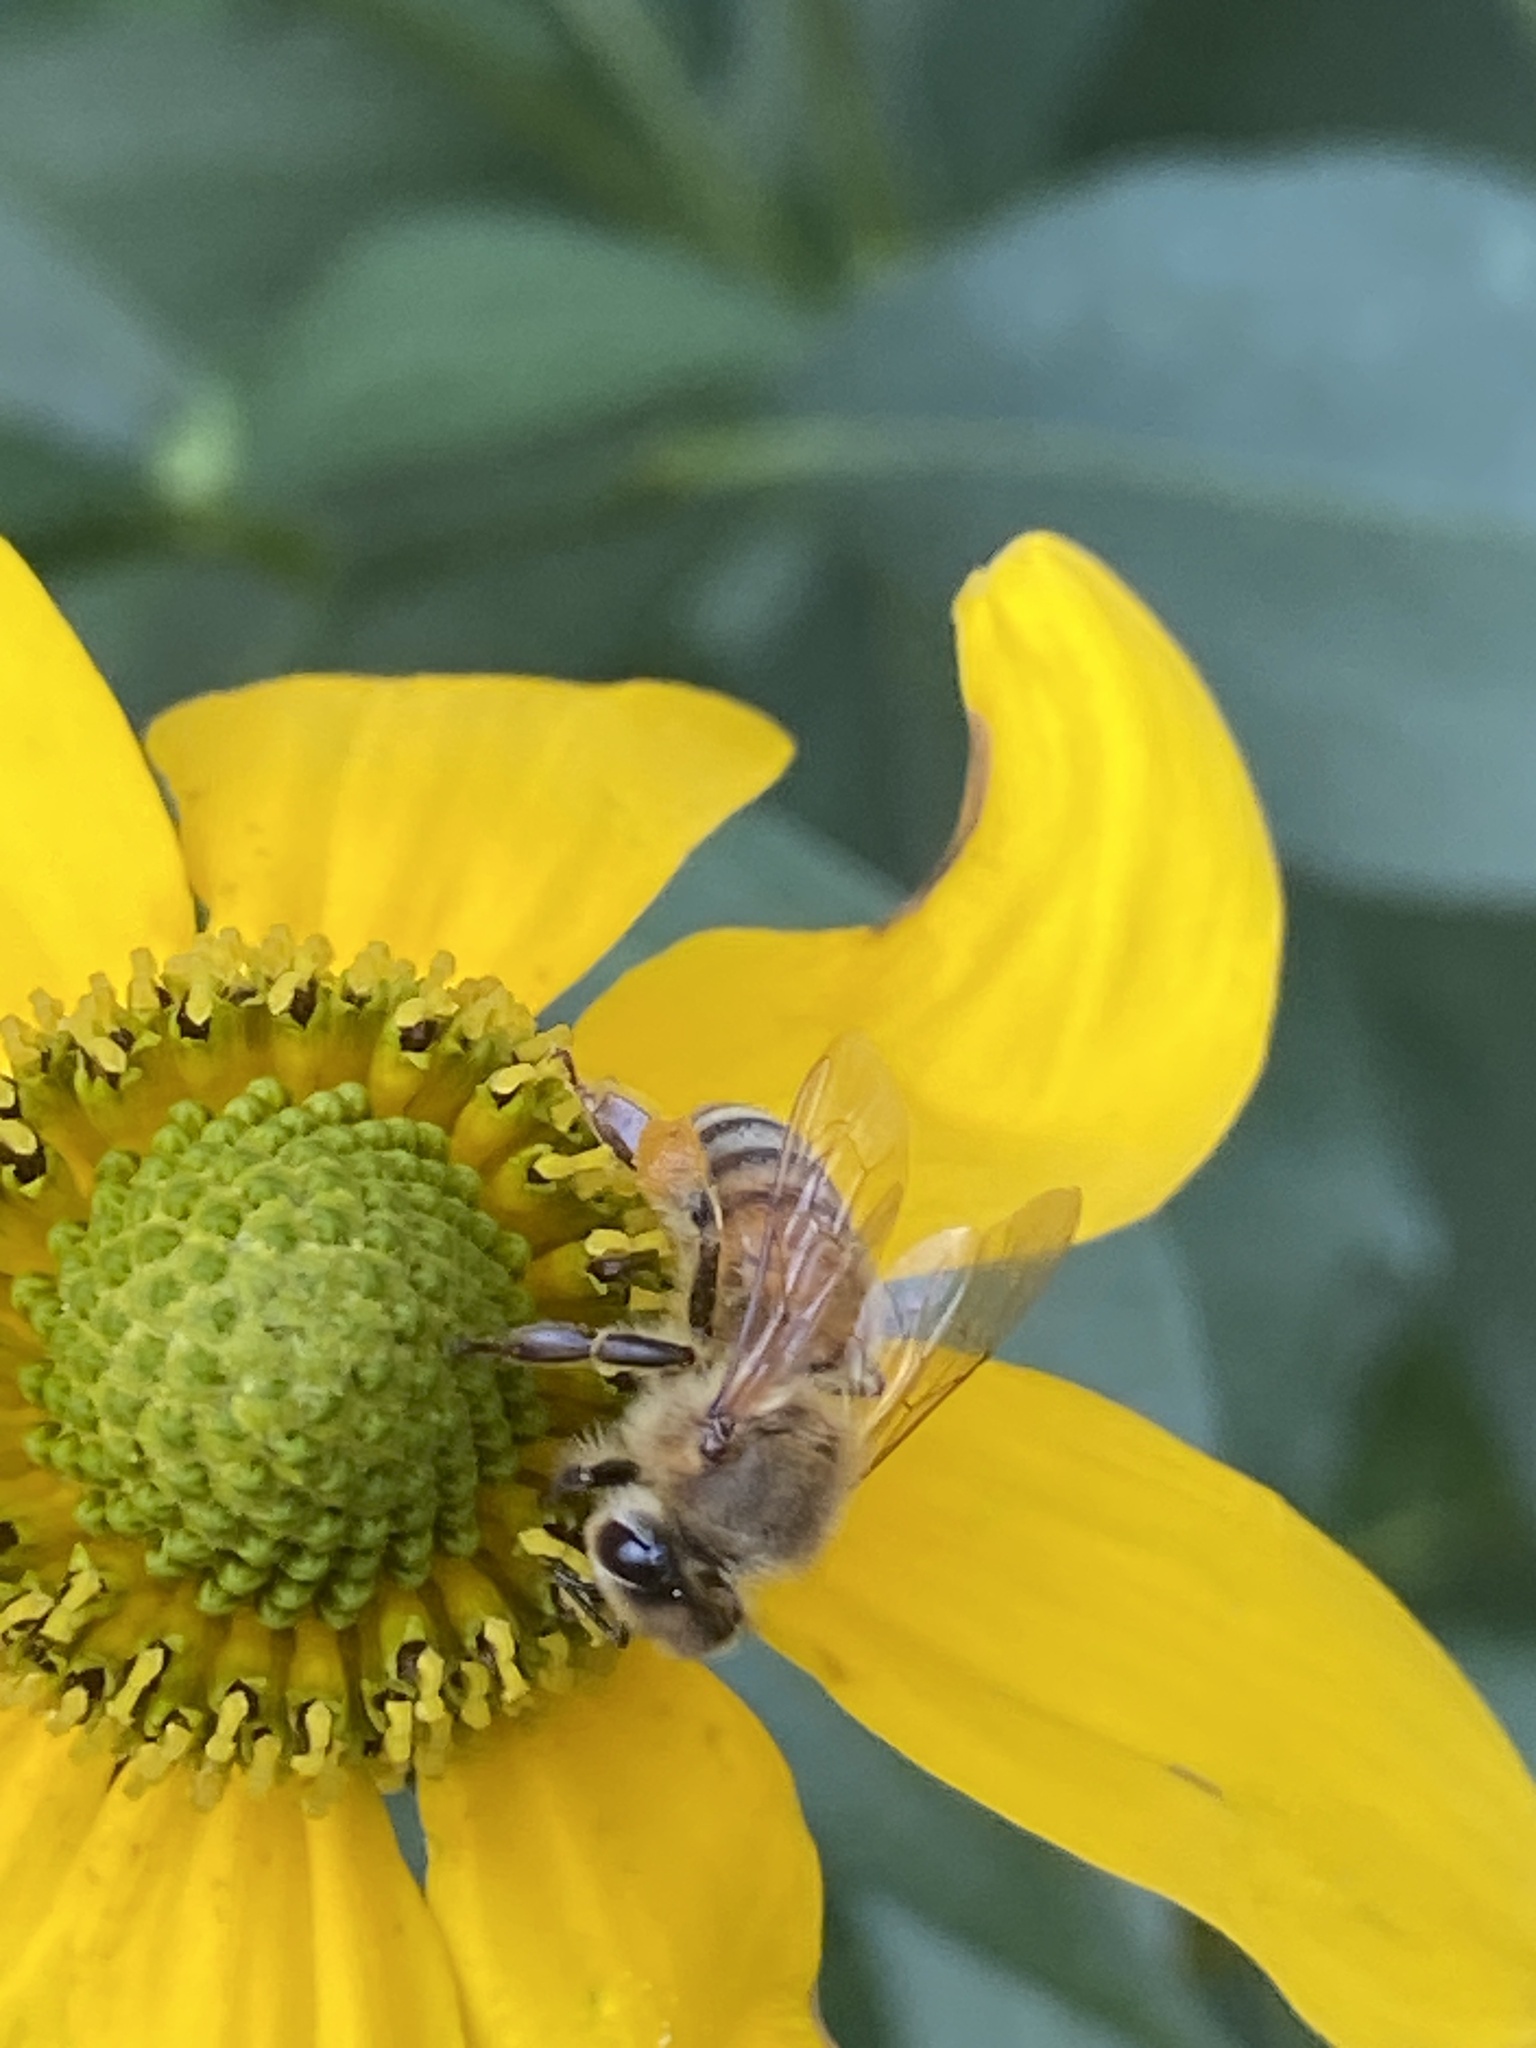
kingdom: Animalia
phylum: Arthropoda
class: Insecta
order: Hymenoptera
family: Apidae
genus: Apis
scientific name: Apis mellifera
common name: Honey bee
